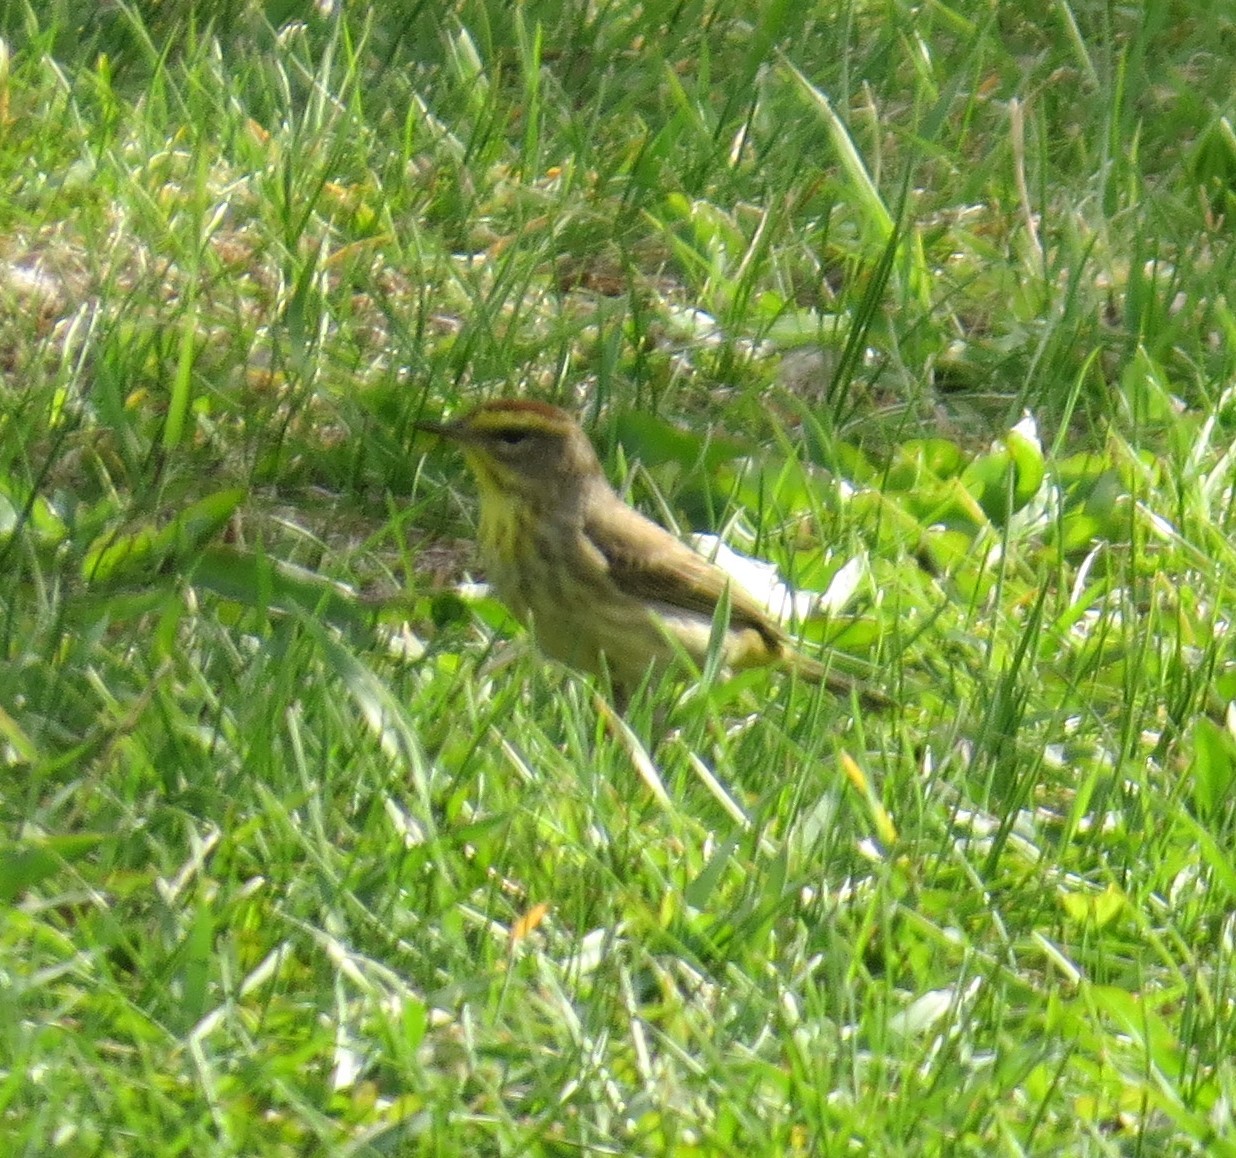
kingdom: Animalia
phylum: Chordata
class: Aves
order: Passeriformes
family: Parulidae
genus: Setophaga
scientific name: Setophaga palmarum
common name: Palm warbler
